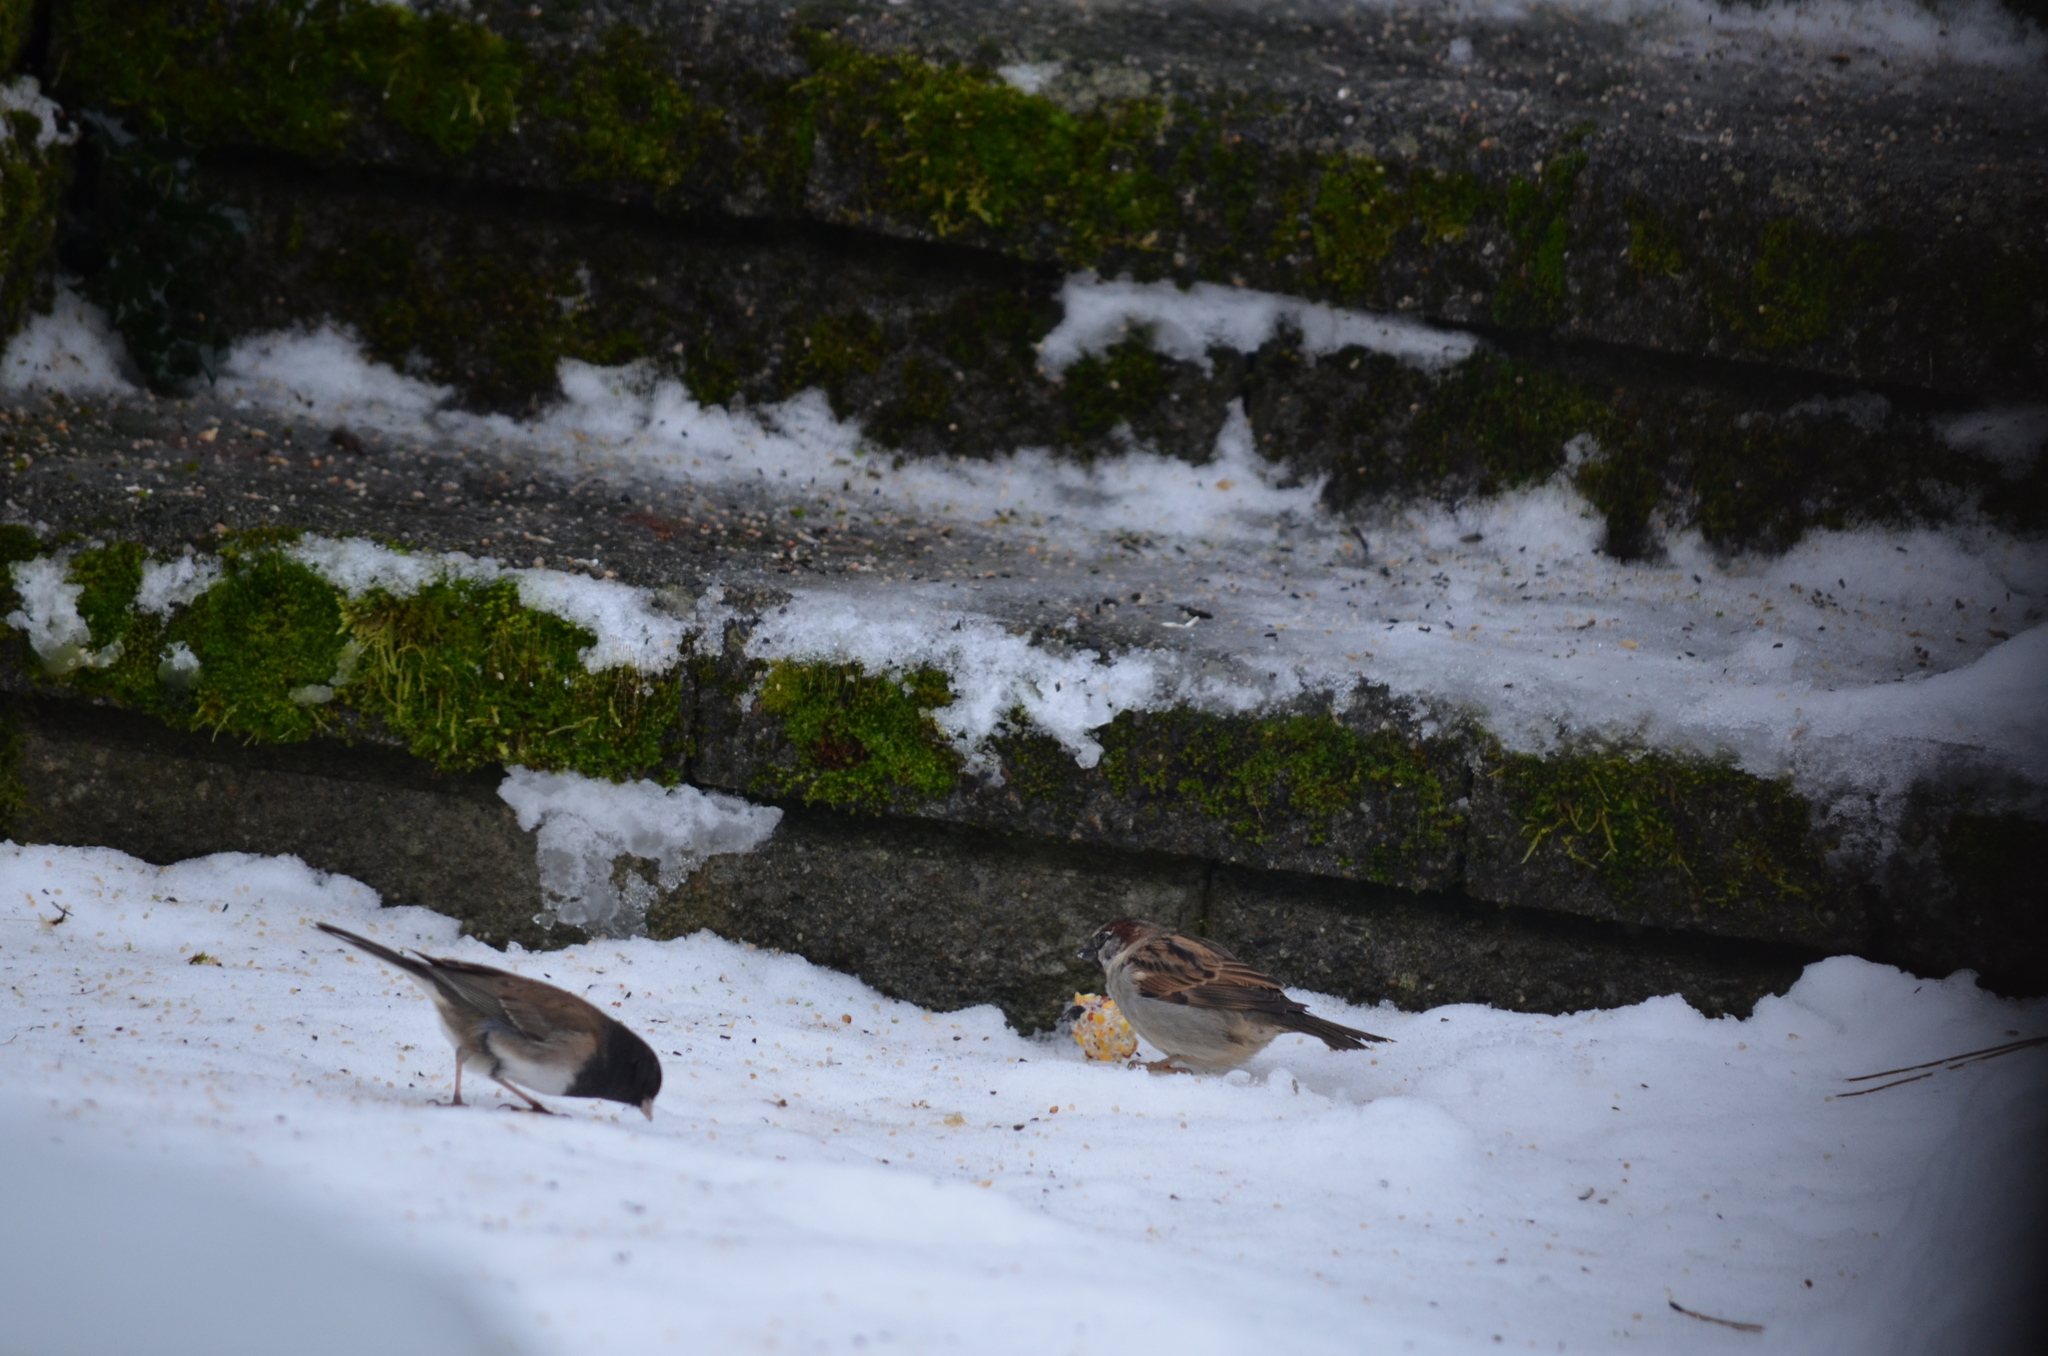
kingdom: Animalia
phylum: Chordata
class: Aves
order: Passeriformes
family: Passerellidae
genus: Junco
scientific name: Junco hyemalis
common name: Dark-eyed junco
